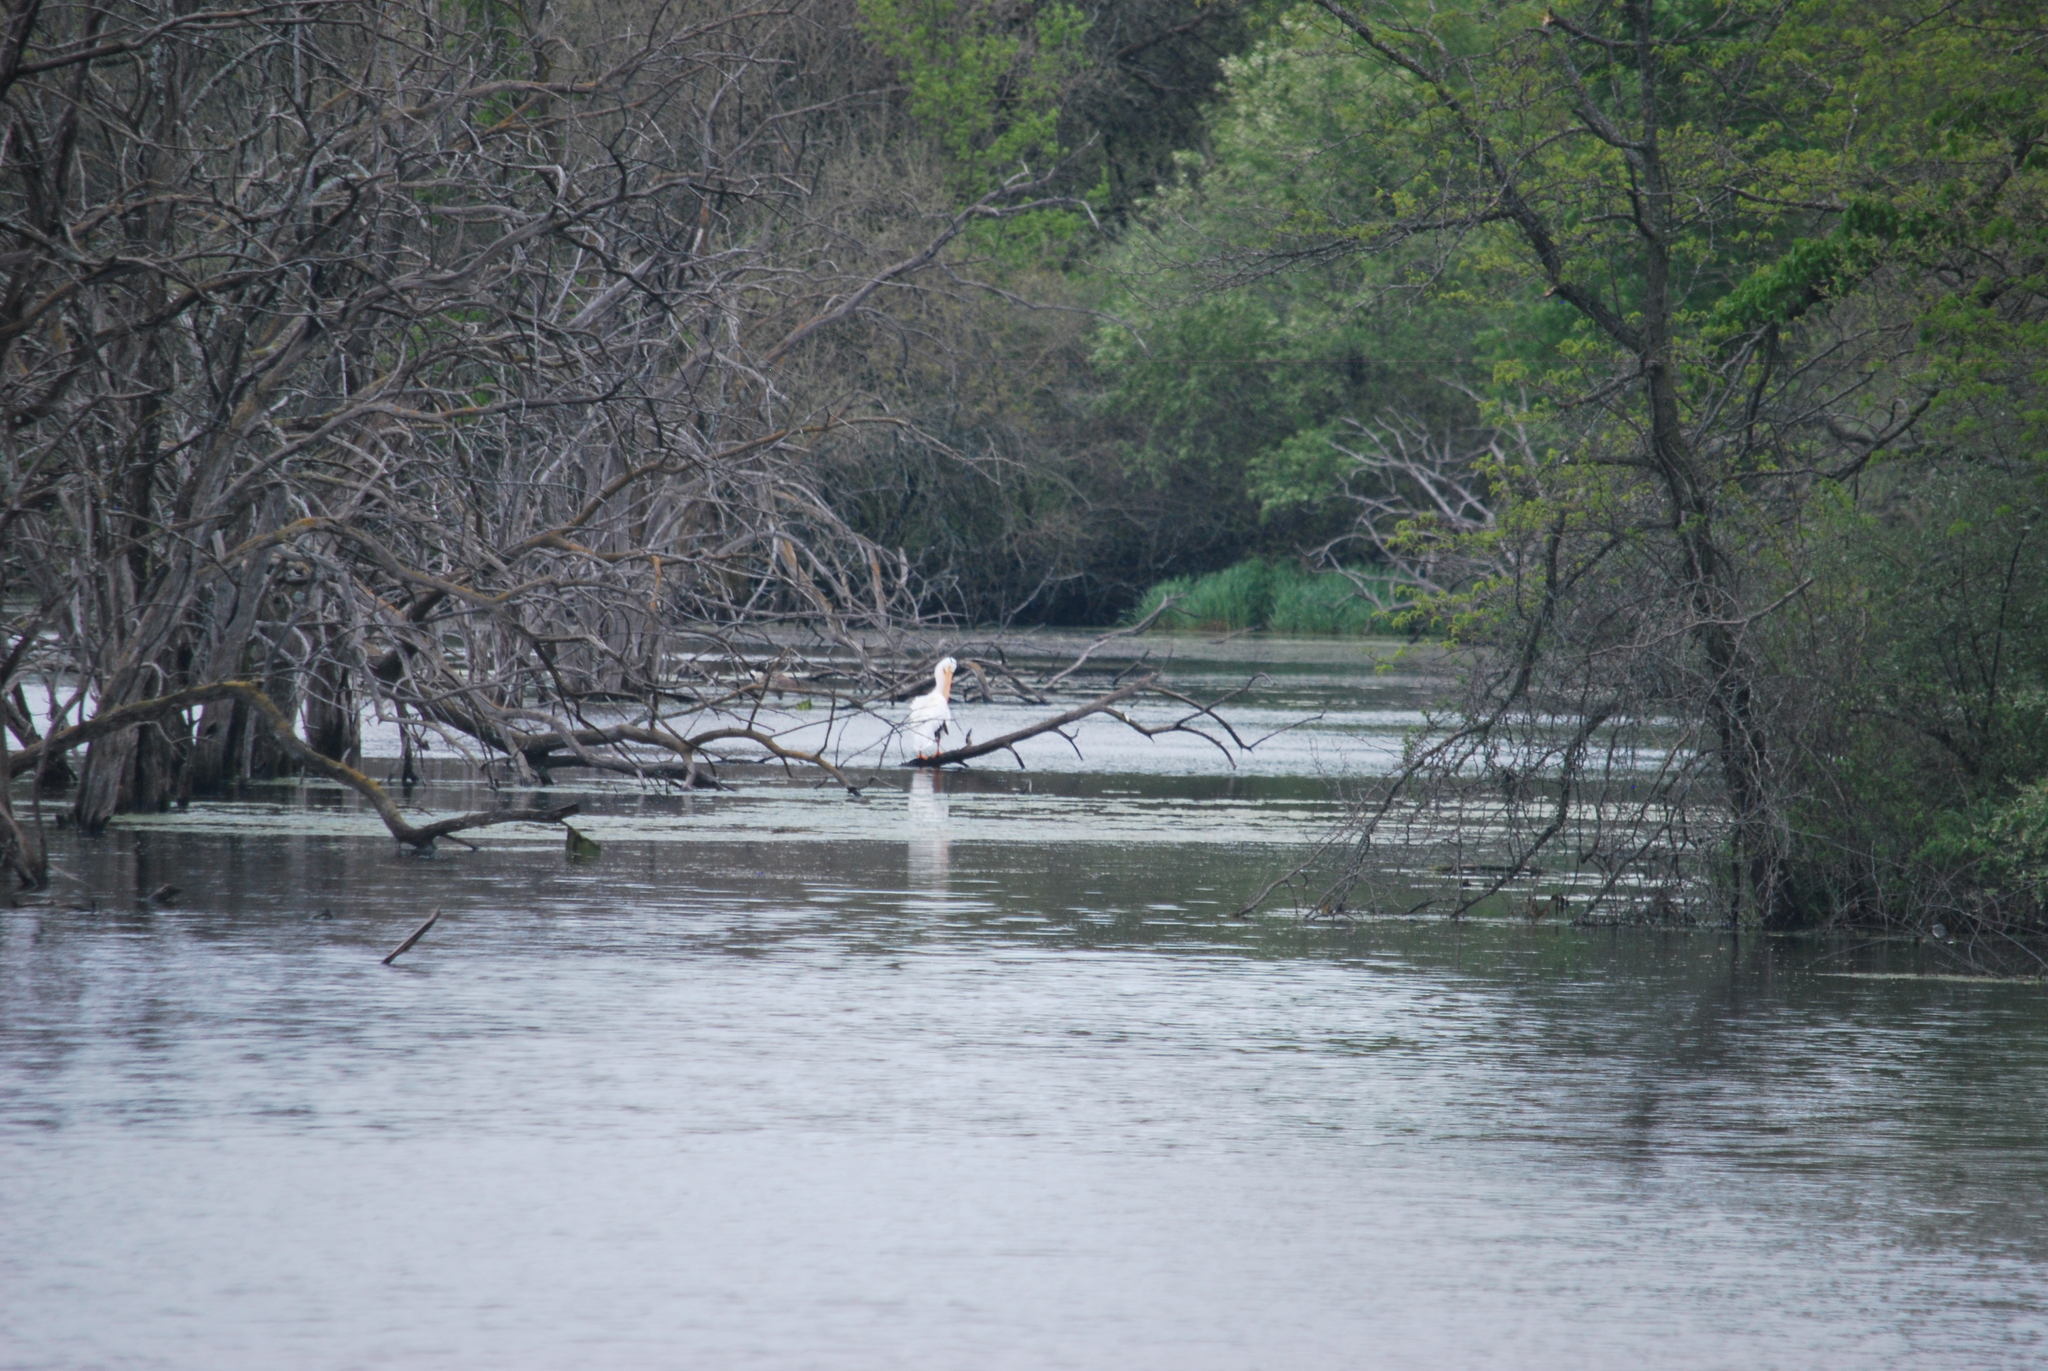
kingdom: Animalia
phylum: Chordata
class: Aves
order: Pelecaniformes
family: Pelecanidae
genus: Pelecanus
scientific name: Pelecanus erythrorhynchos
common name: American white pelican
